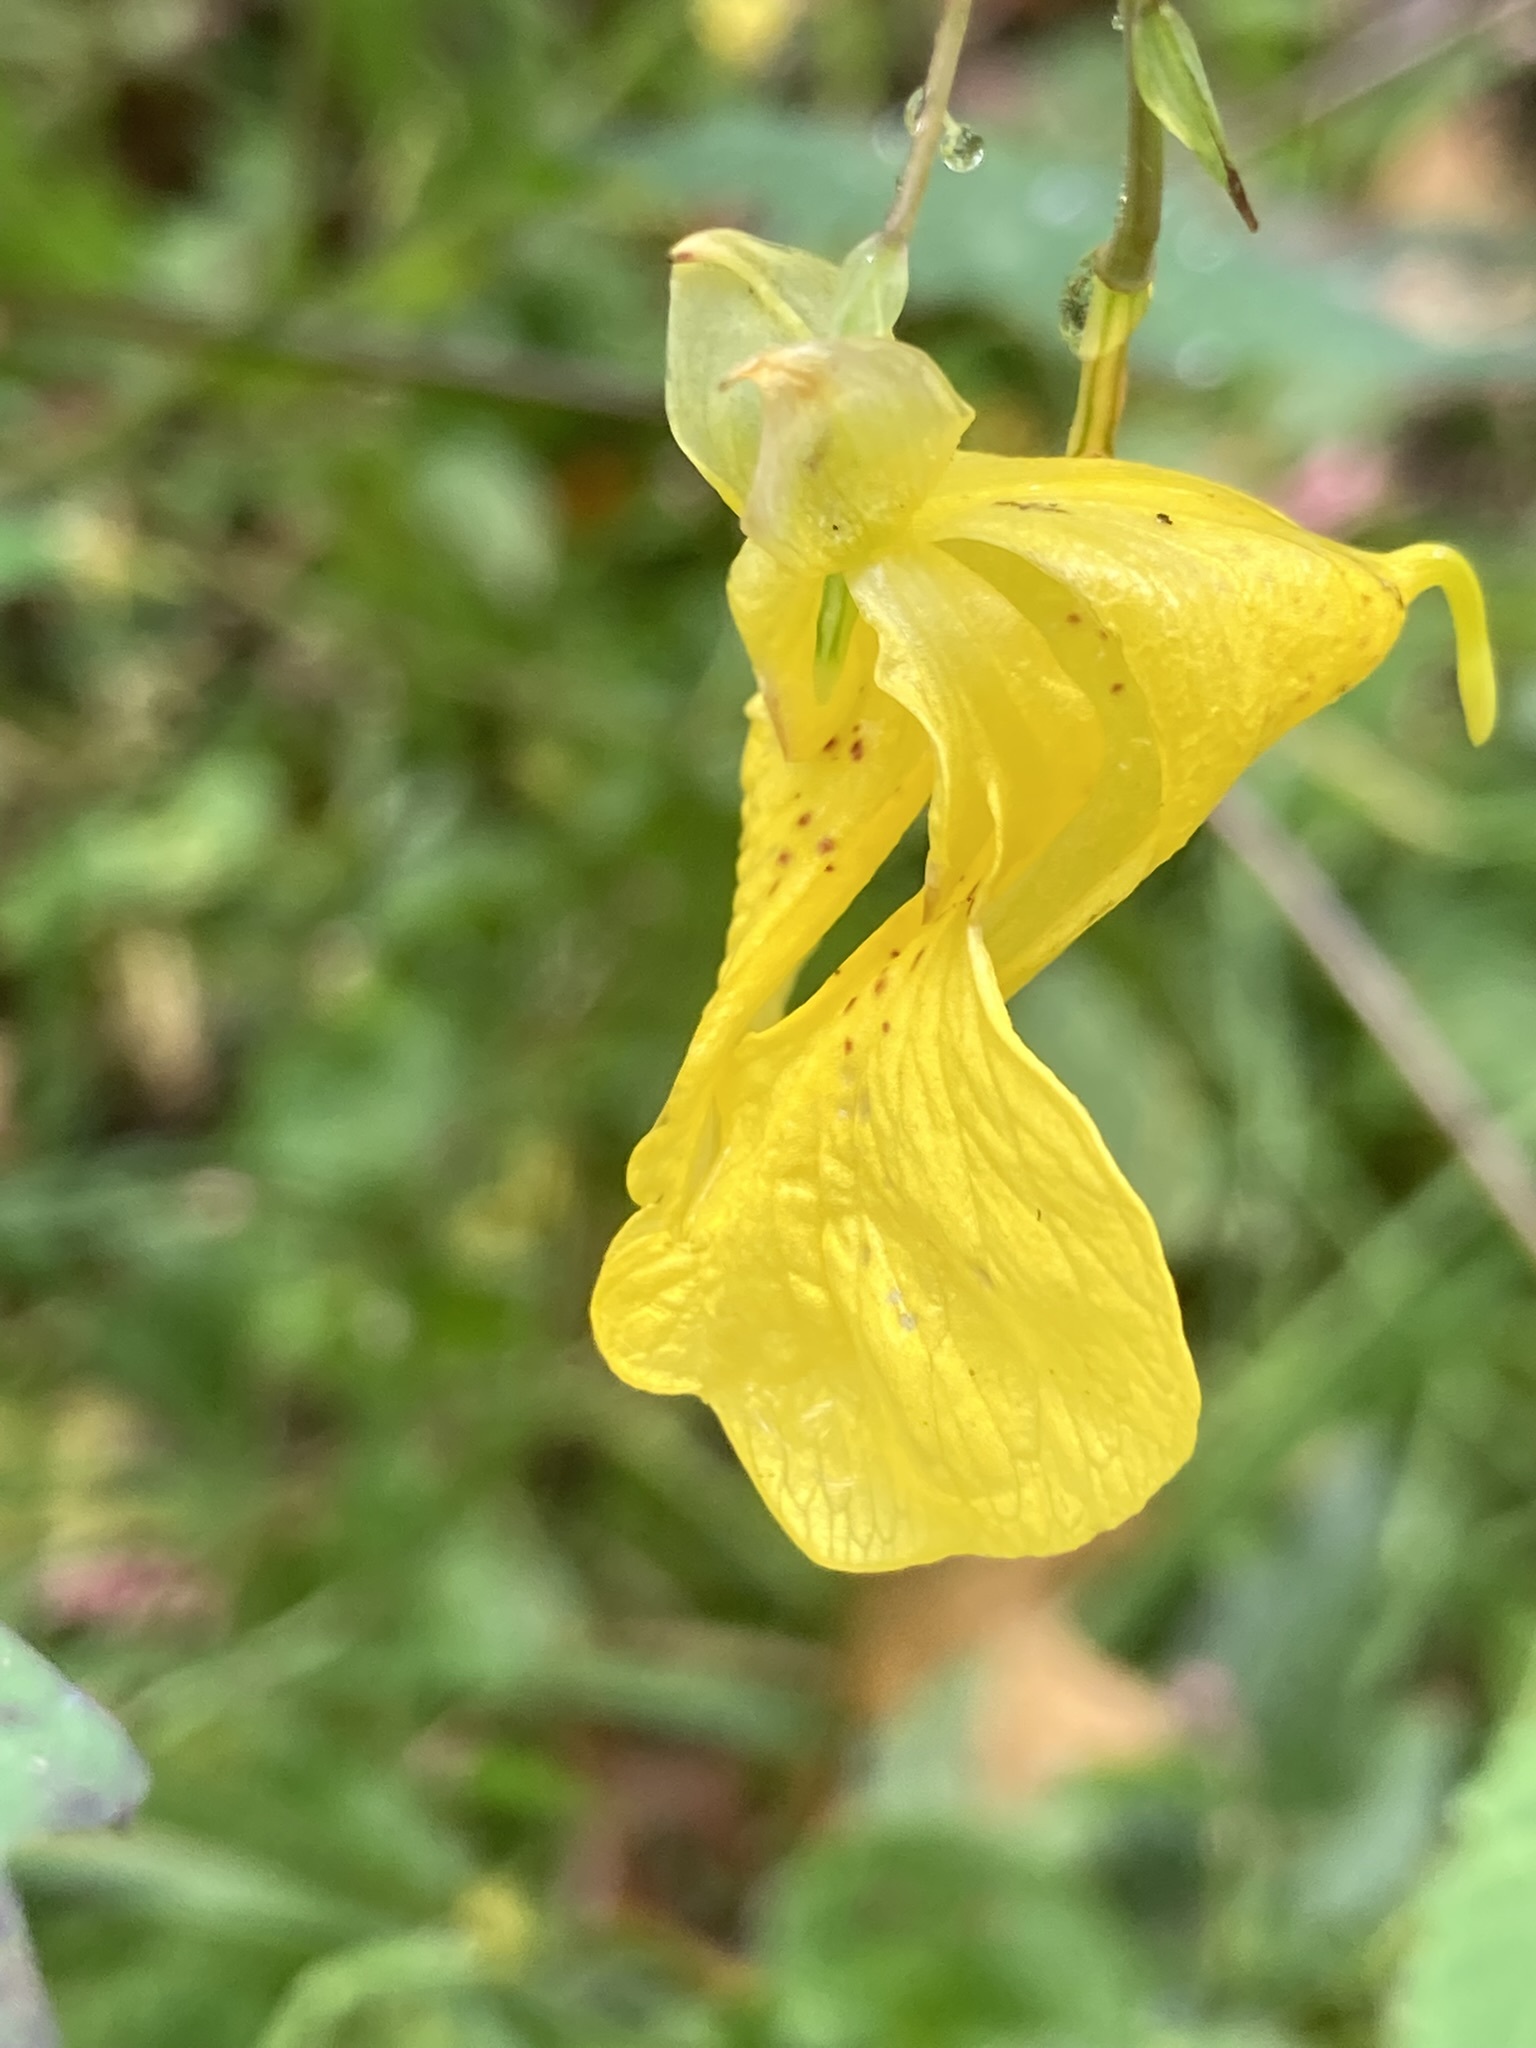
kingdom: Plantae
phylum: Tracheophyta
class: Magnoliopsida
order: Ericales
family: Balsaminaceae
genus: Impatiens
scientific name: Impatiens pallida
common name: Pale snapweed
